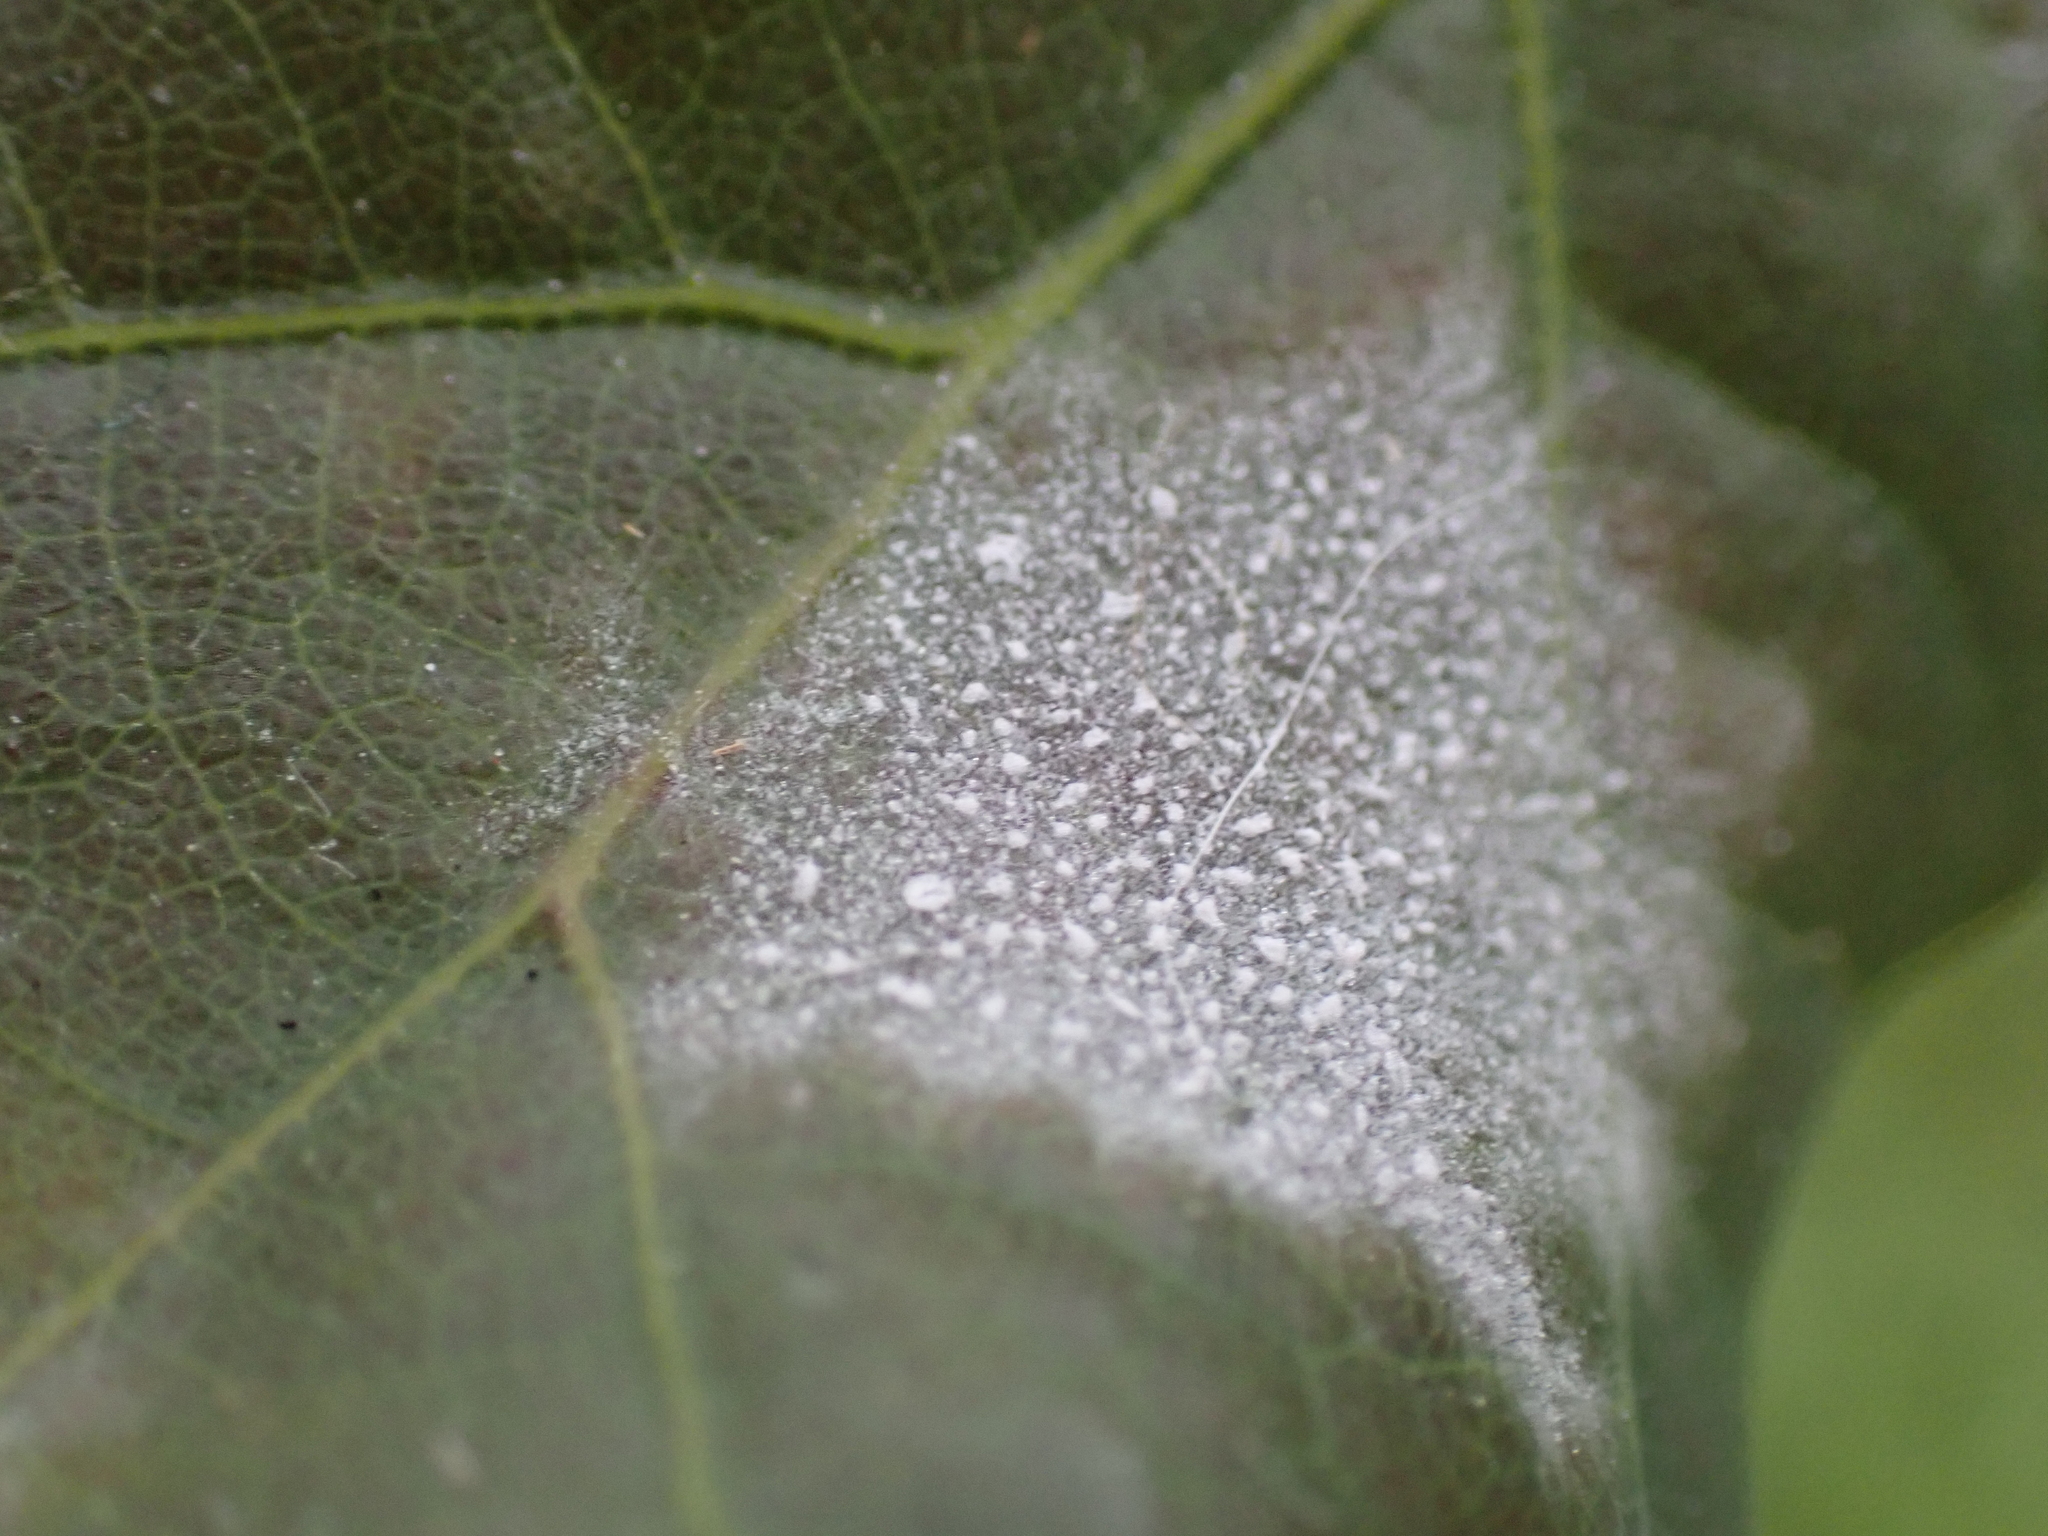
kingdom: Fungi
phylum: Ascomycota
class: Leotiomycetes
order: Helotiales
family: Erysiphaceae
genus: Erysiphe
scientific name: Erysiphe
